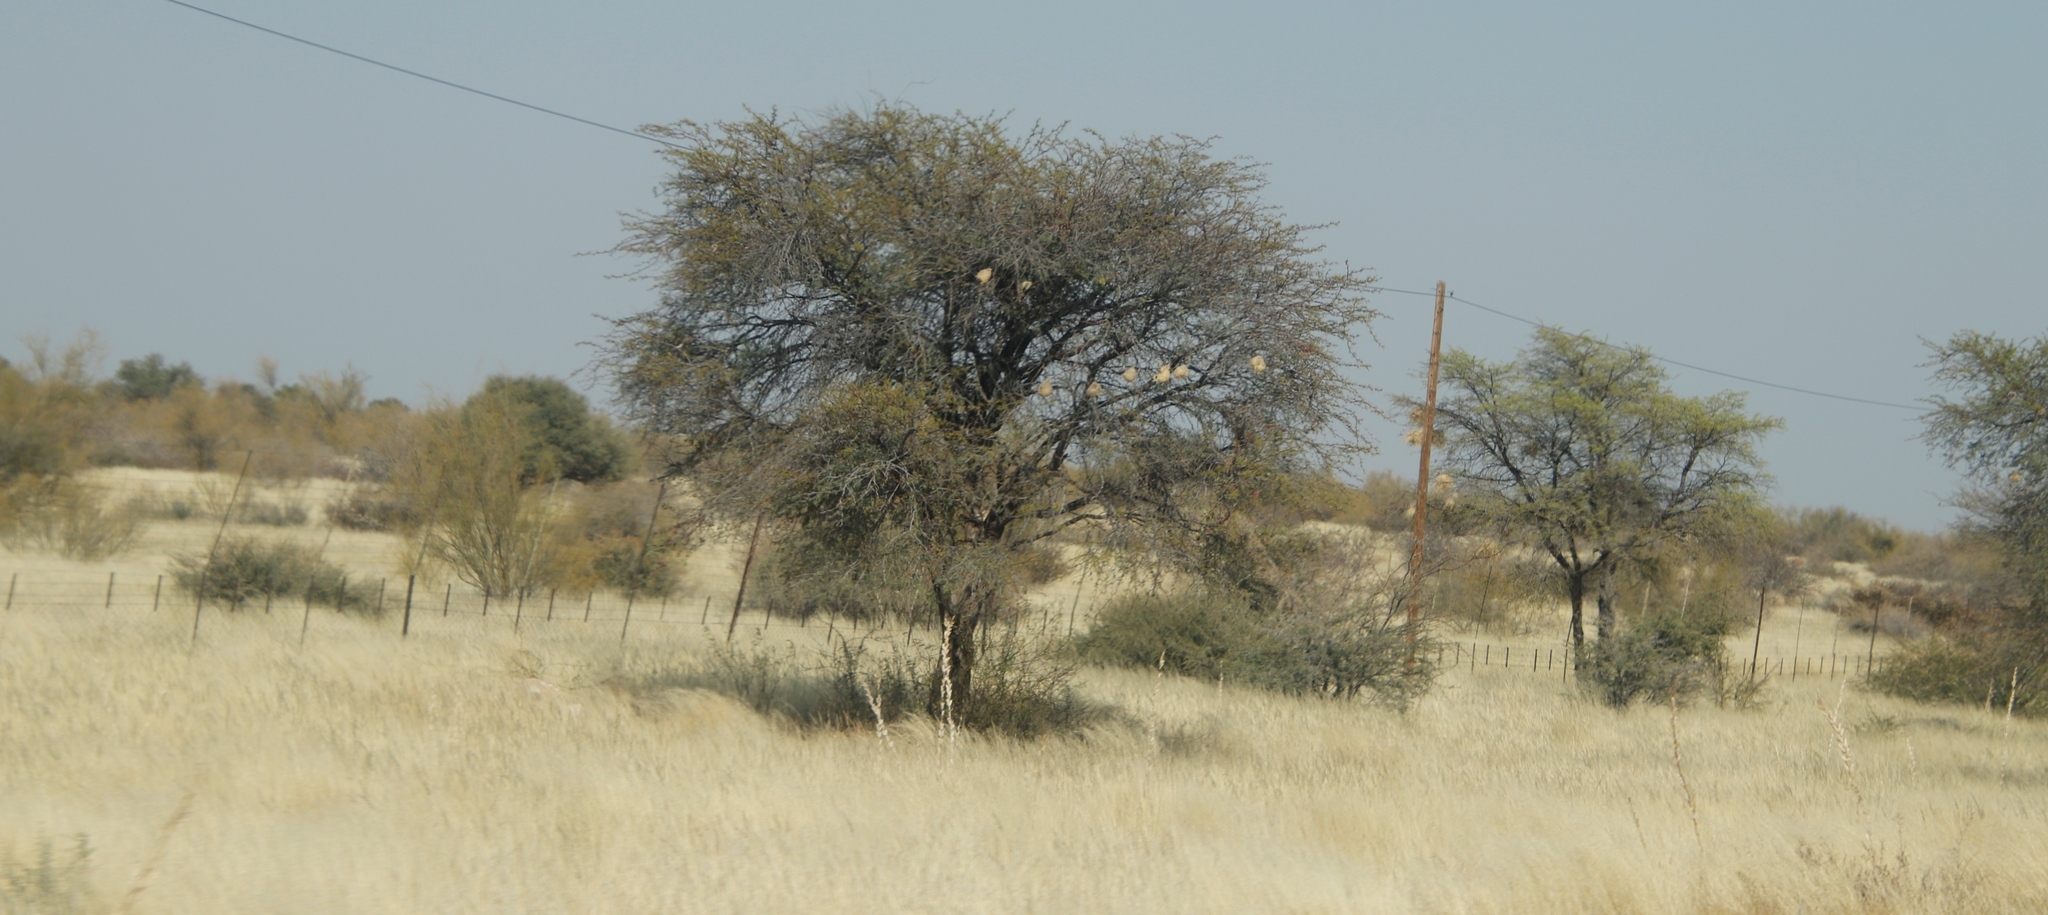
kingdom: Animalia
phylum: Chordata
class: Aves
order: Passeriformes
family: Passeridae
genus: Plocepasser
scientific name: Plocepasser mahali
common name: White-browed sparrow-weaver
